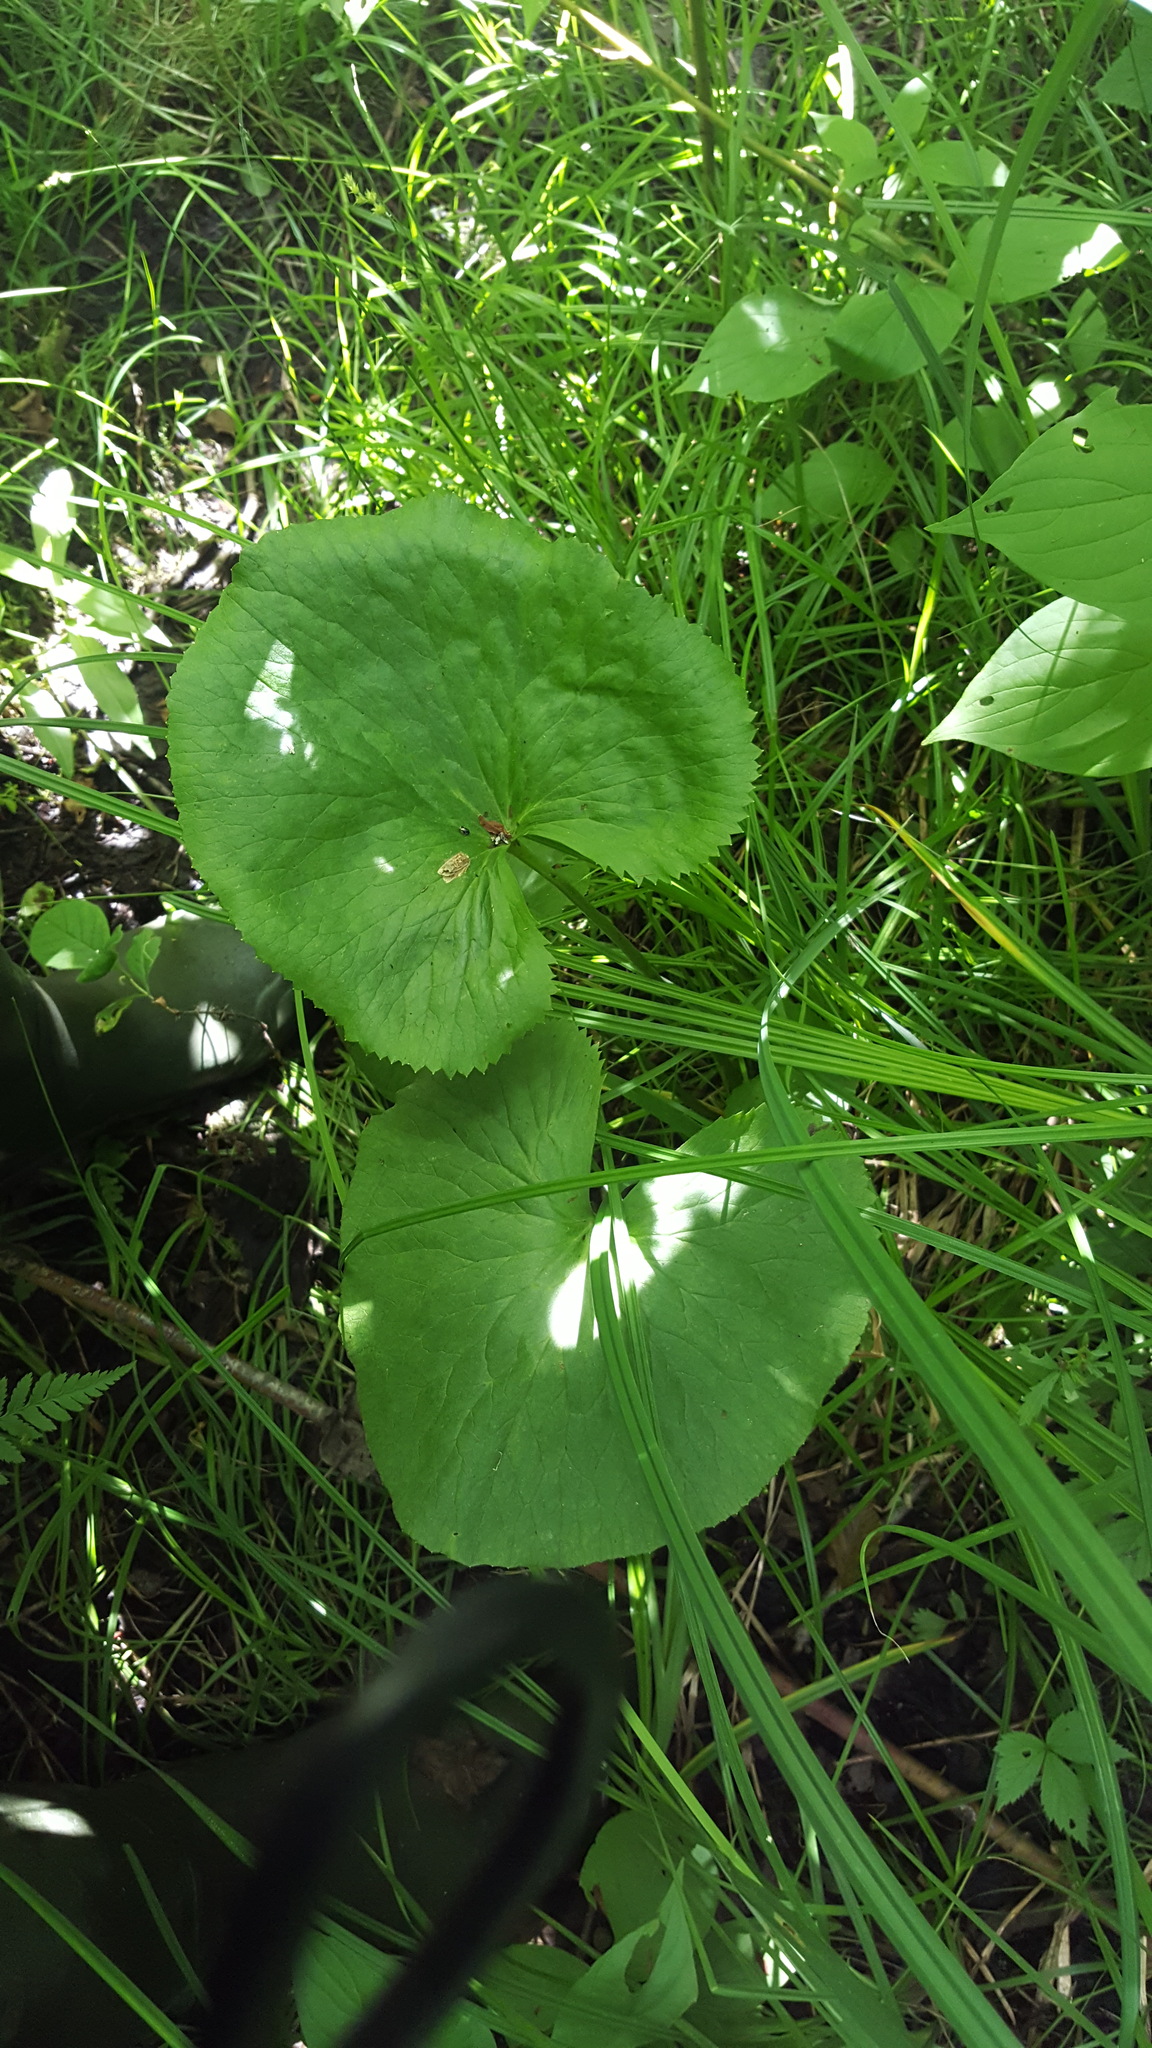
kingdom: Plantae
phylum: Tracheophyta
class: Magnoliopsida
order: Ranunculales
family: Ranunculaceae
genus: Caltha
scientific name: Caltha palustris
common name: Marsh marigold
